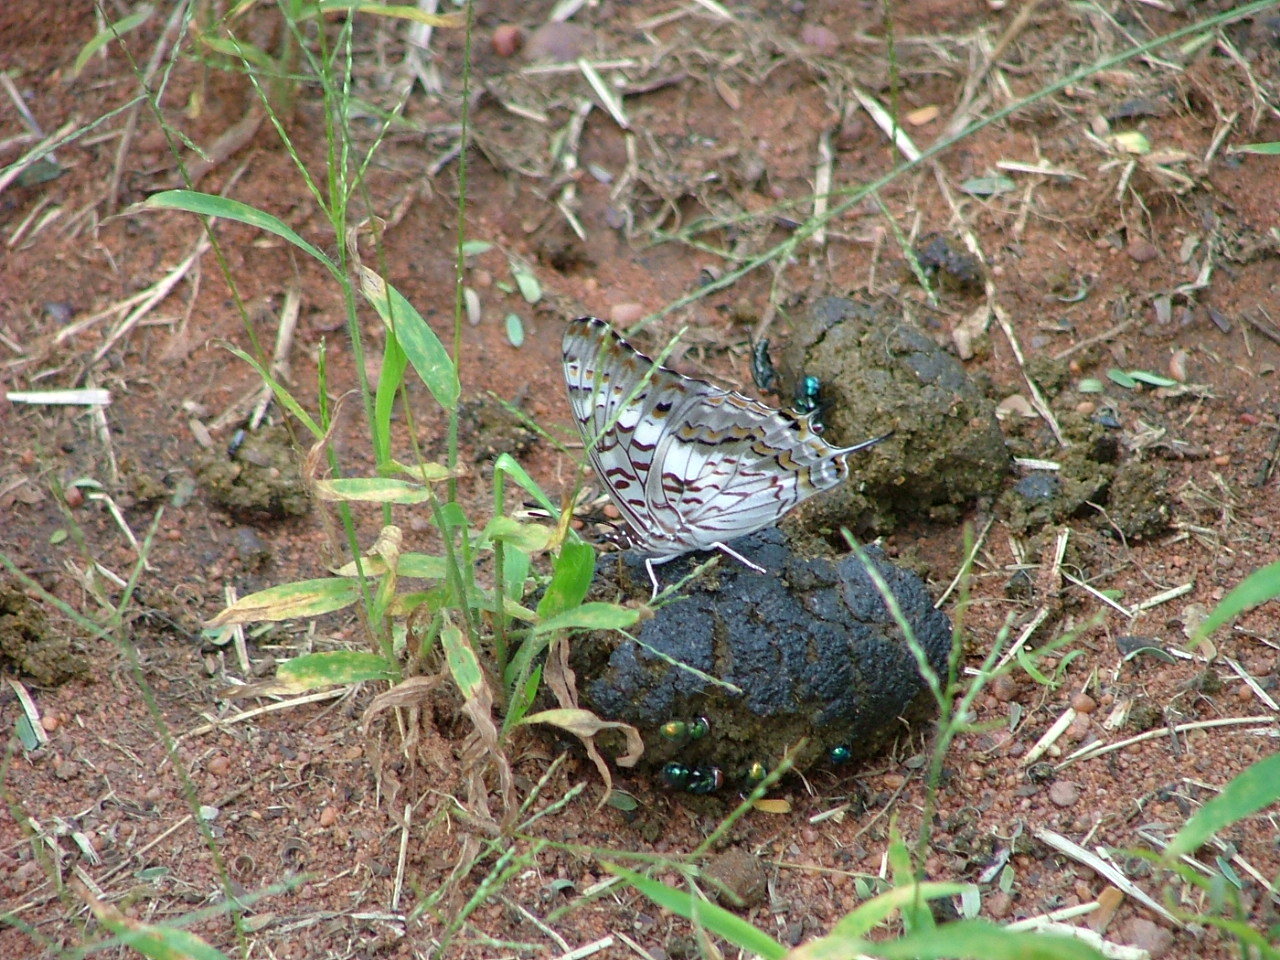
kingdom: Animalia
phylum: Arthropoda
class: Insecta
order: Lepidoptera
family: Nymphalidae
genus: Charaxes
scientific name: Charaxes achaemenes
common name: Bushveld charaxes
